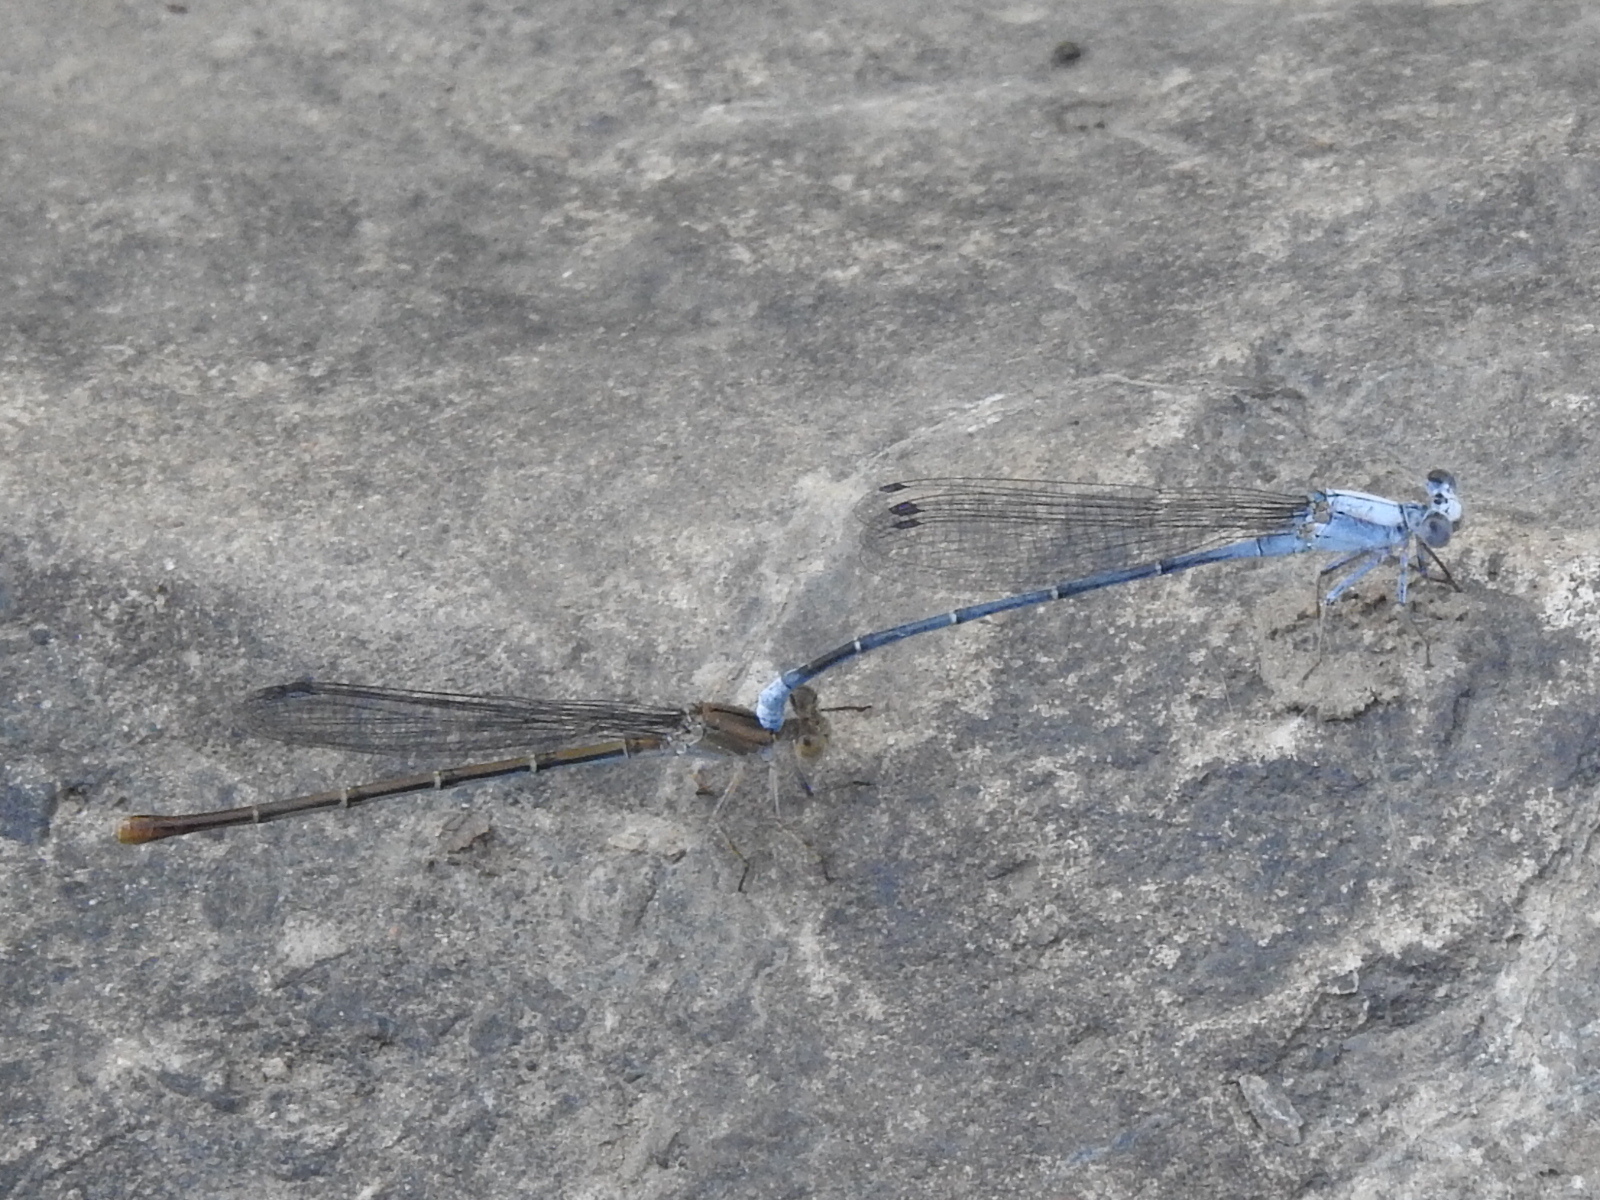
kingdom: Animalia
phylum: Arthropoda
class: Insecta
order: Odonata
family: Coenagrionidae
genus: Argia
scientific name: Argia moesta
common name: Powdered dancer
